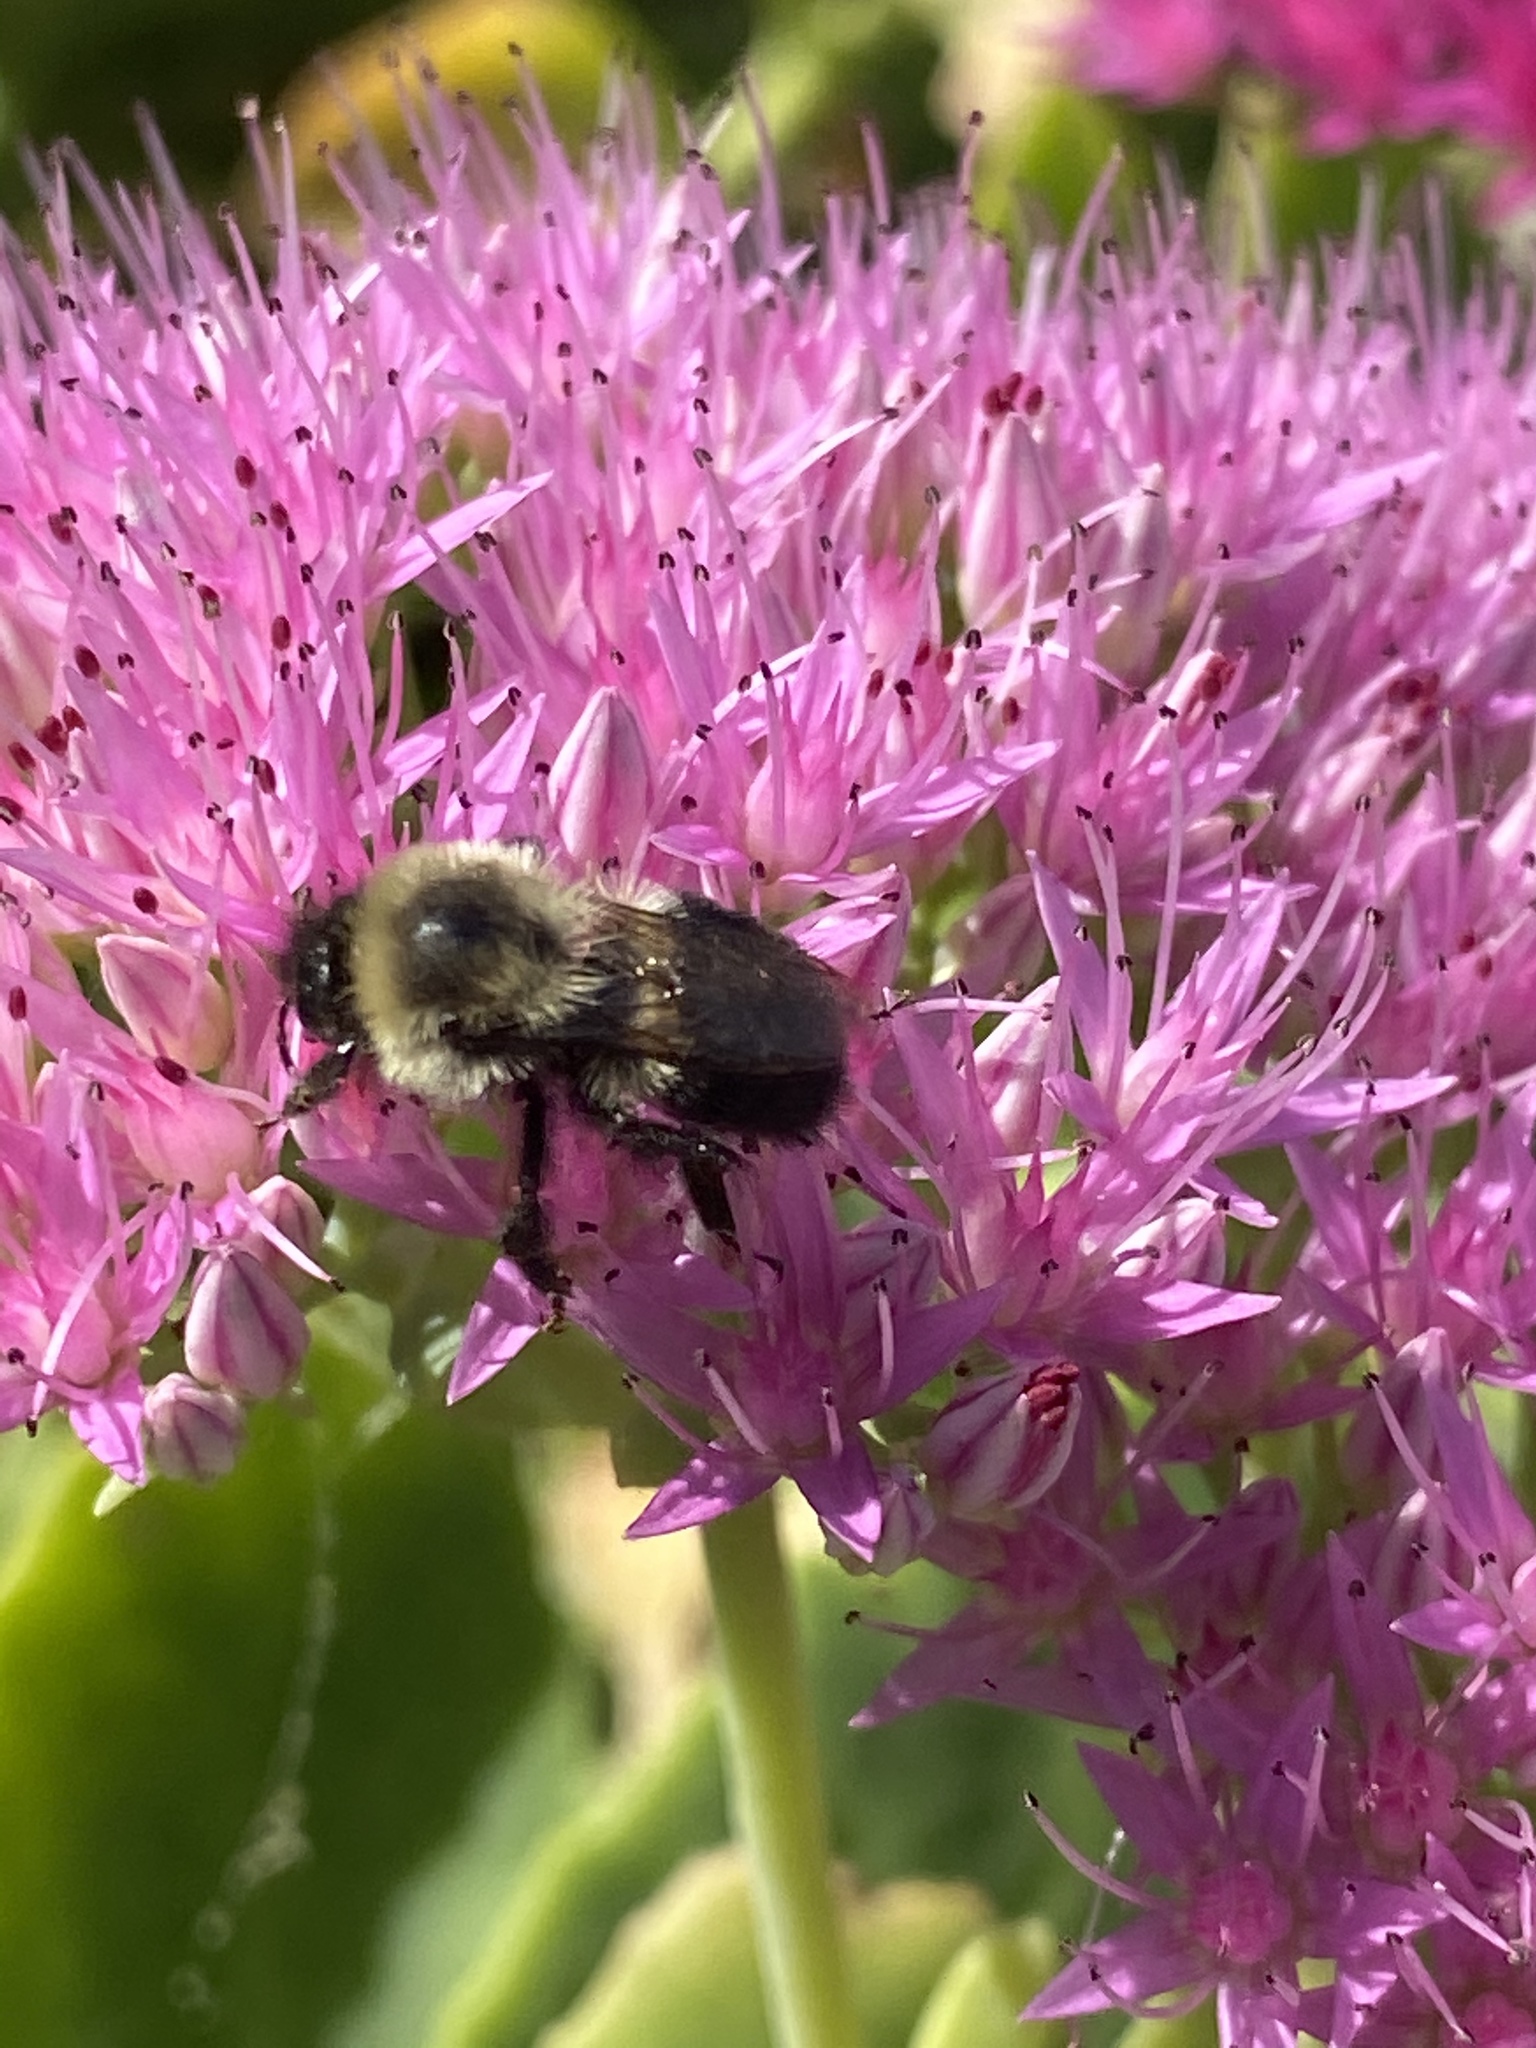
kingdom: Animalia
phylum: Arthropoda
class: Insecta
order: Hymenoptera
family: Apidae
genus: Bombus
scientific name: Bombus impatiens
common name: Common eastern bumble bee
